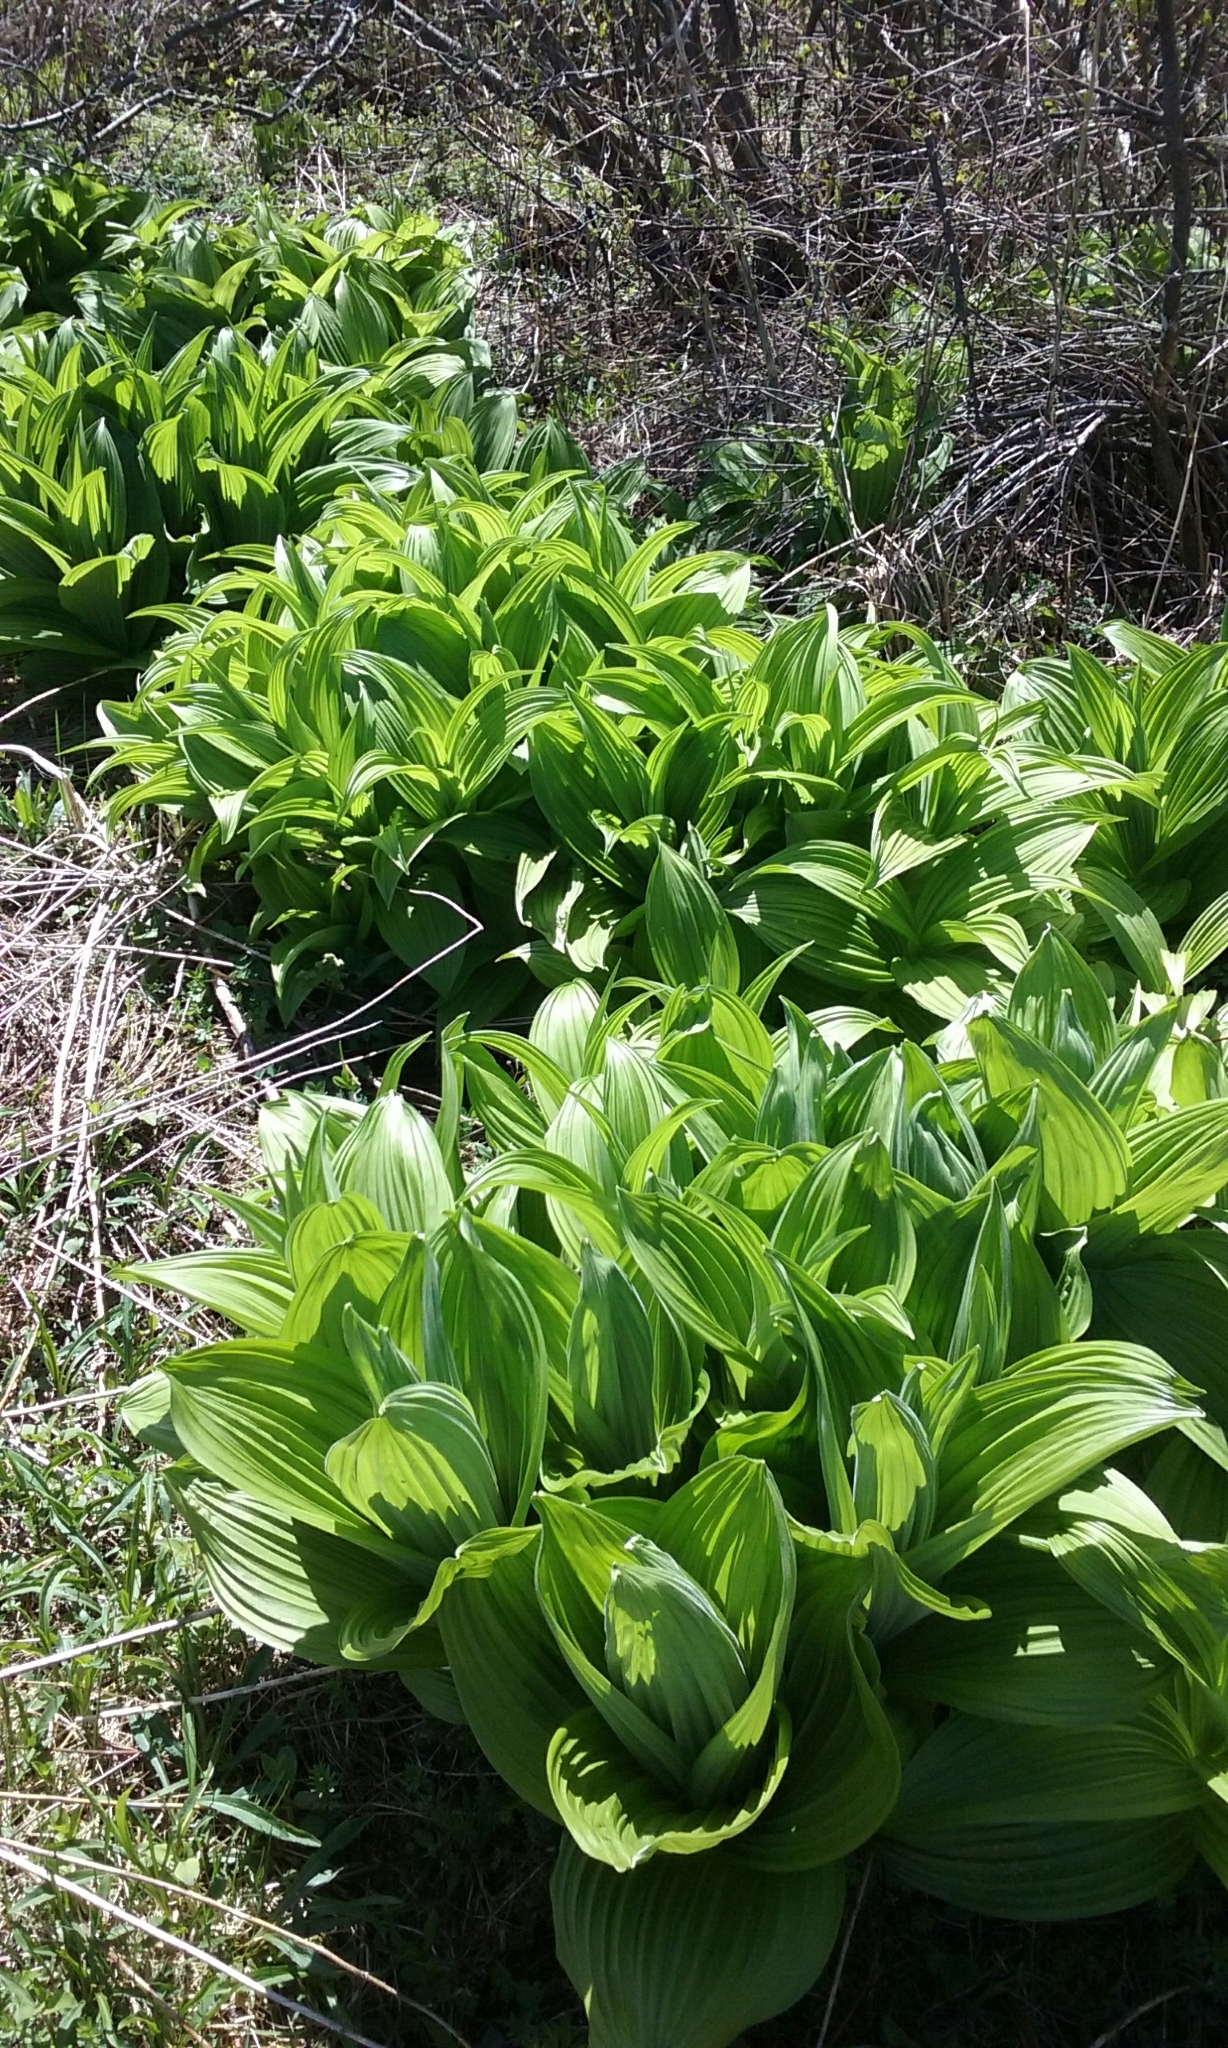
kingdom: Plantae
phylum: Tracheophyta
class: Liliopsida
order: Liliales
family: Melanthiaceae
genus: Veratrum
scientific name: Veratrum viride
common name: American false hellebore
